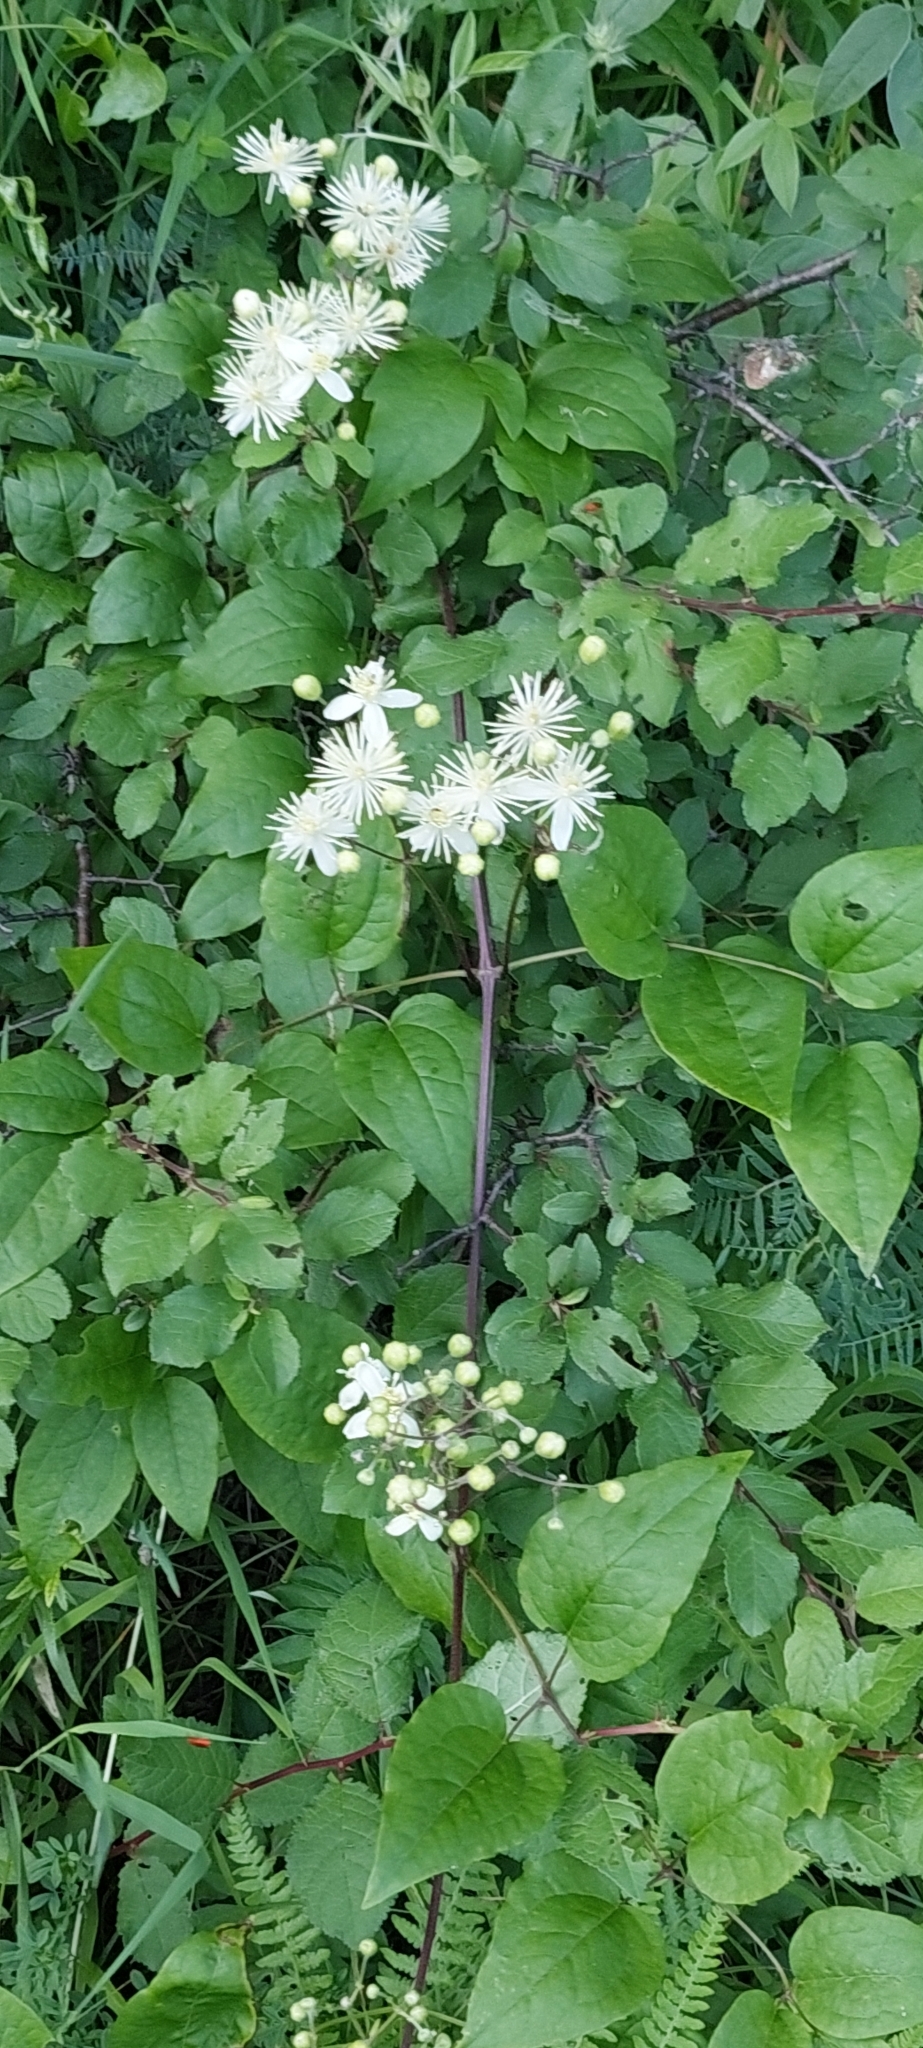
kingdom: Plantae
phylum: Tracheophyta
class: Magnoliopsida
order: Ranunculales
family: Ranunculaceae
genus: Clematis
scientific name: Clematis vitalba
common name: Evergreen clematis
